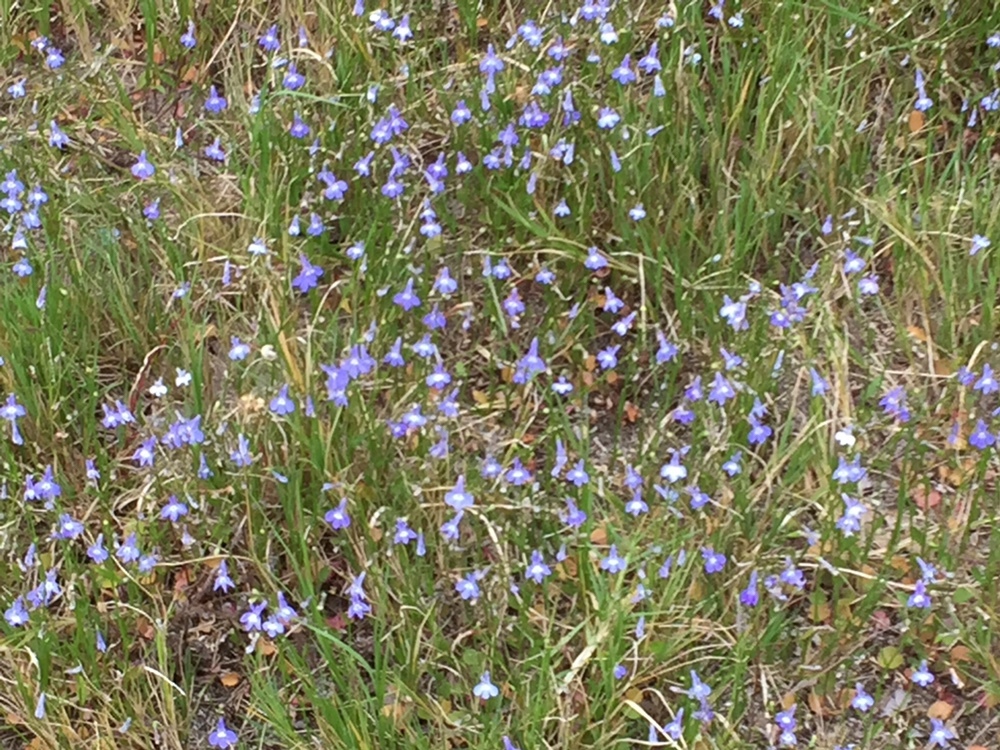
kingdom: Plantae
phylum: Tracheophyta
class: Magnoliopsida
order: Asterales
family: Campanulaceae
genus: Lobelia
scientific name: Lobelia erinus
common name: Edging lobelia
